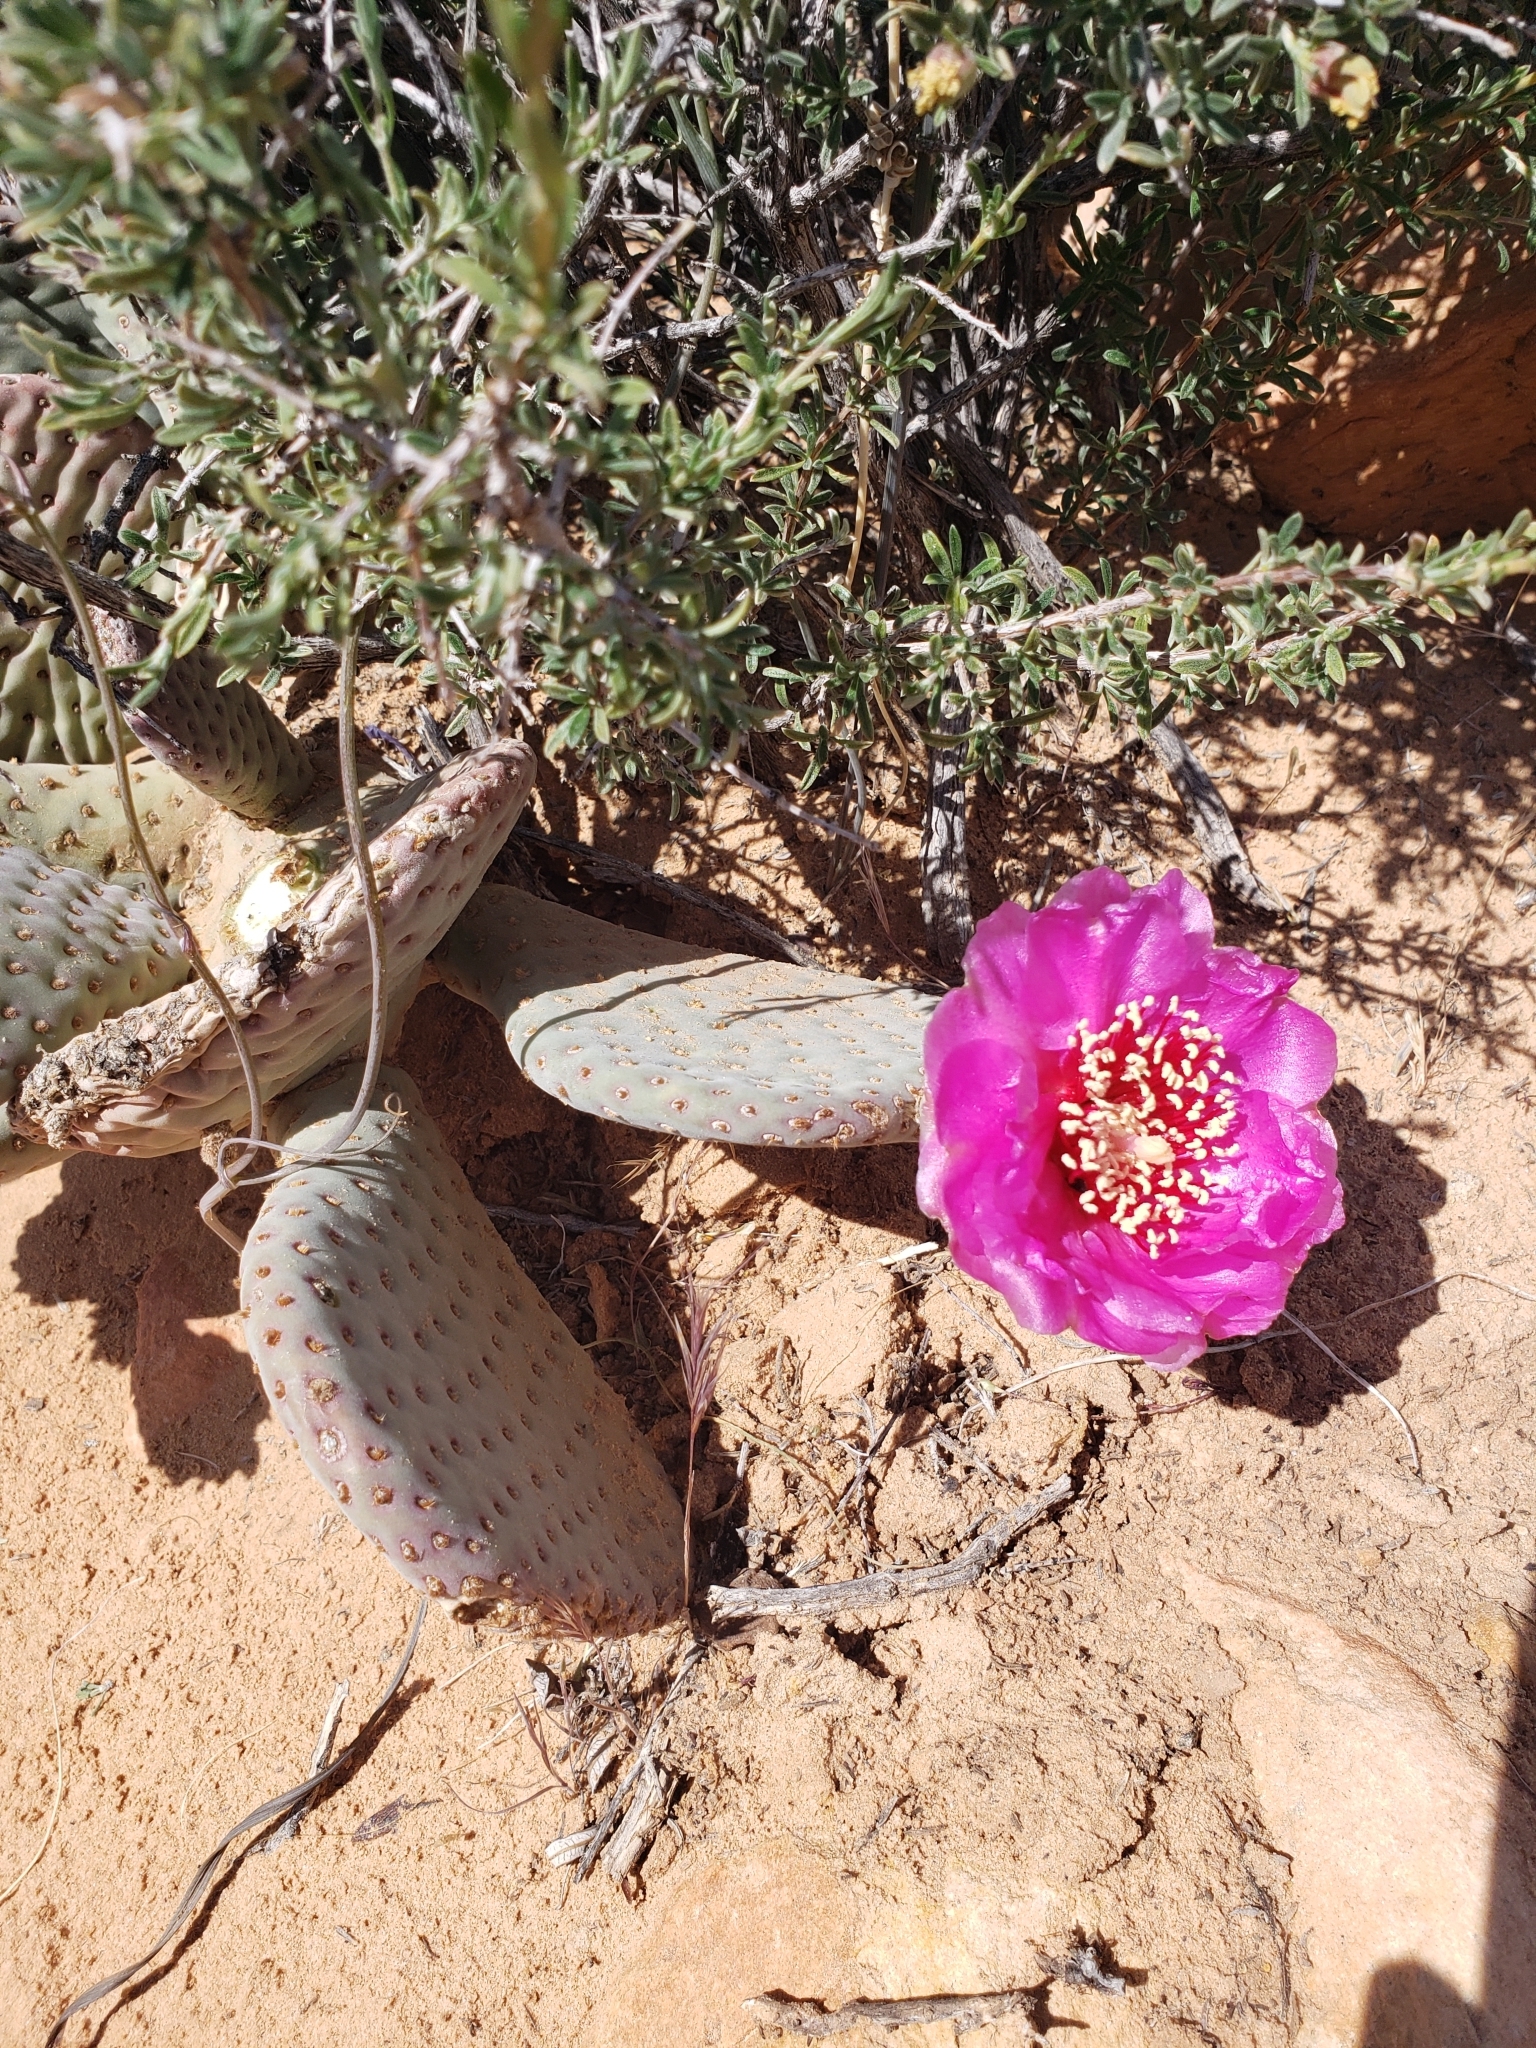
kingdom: Plantae
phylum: Tracheophyta
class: Magnoliopsida
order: Caryophyllales
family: Cactaceae
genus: Opuntia
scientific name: Opuntia basilaris
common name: Beavertail prickly-pear
